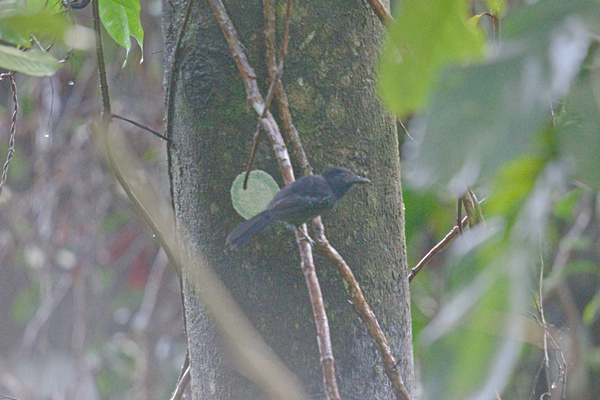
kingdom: Animalia
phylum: Chordata
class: Aves
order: Passeriformes
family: Thamnophilidae
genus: Thamnophilus
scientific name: Thamnophilus bridgesi
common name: Black-hooded antshrike
